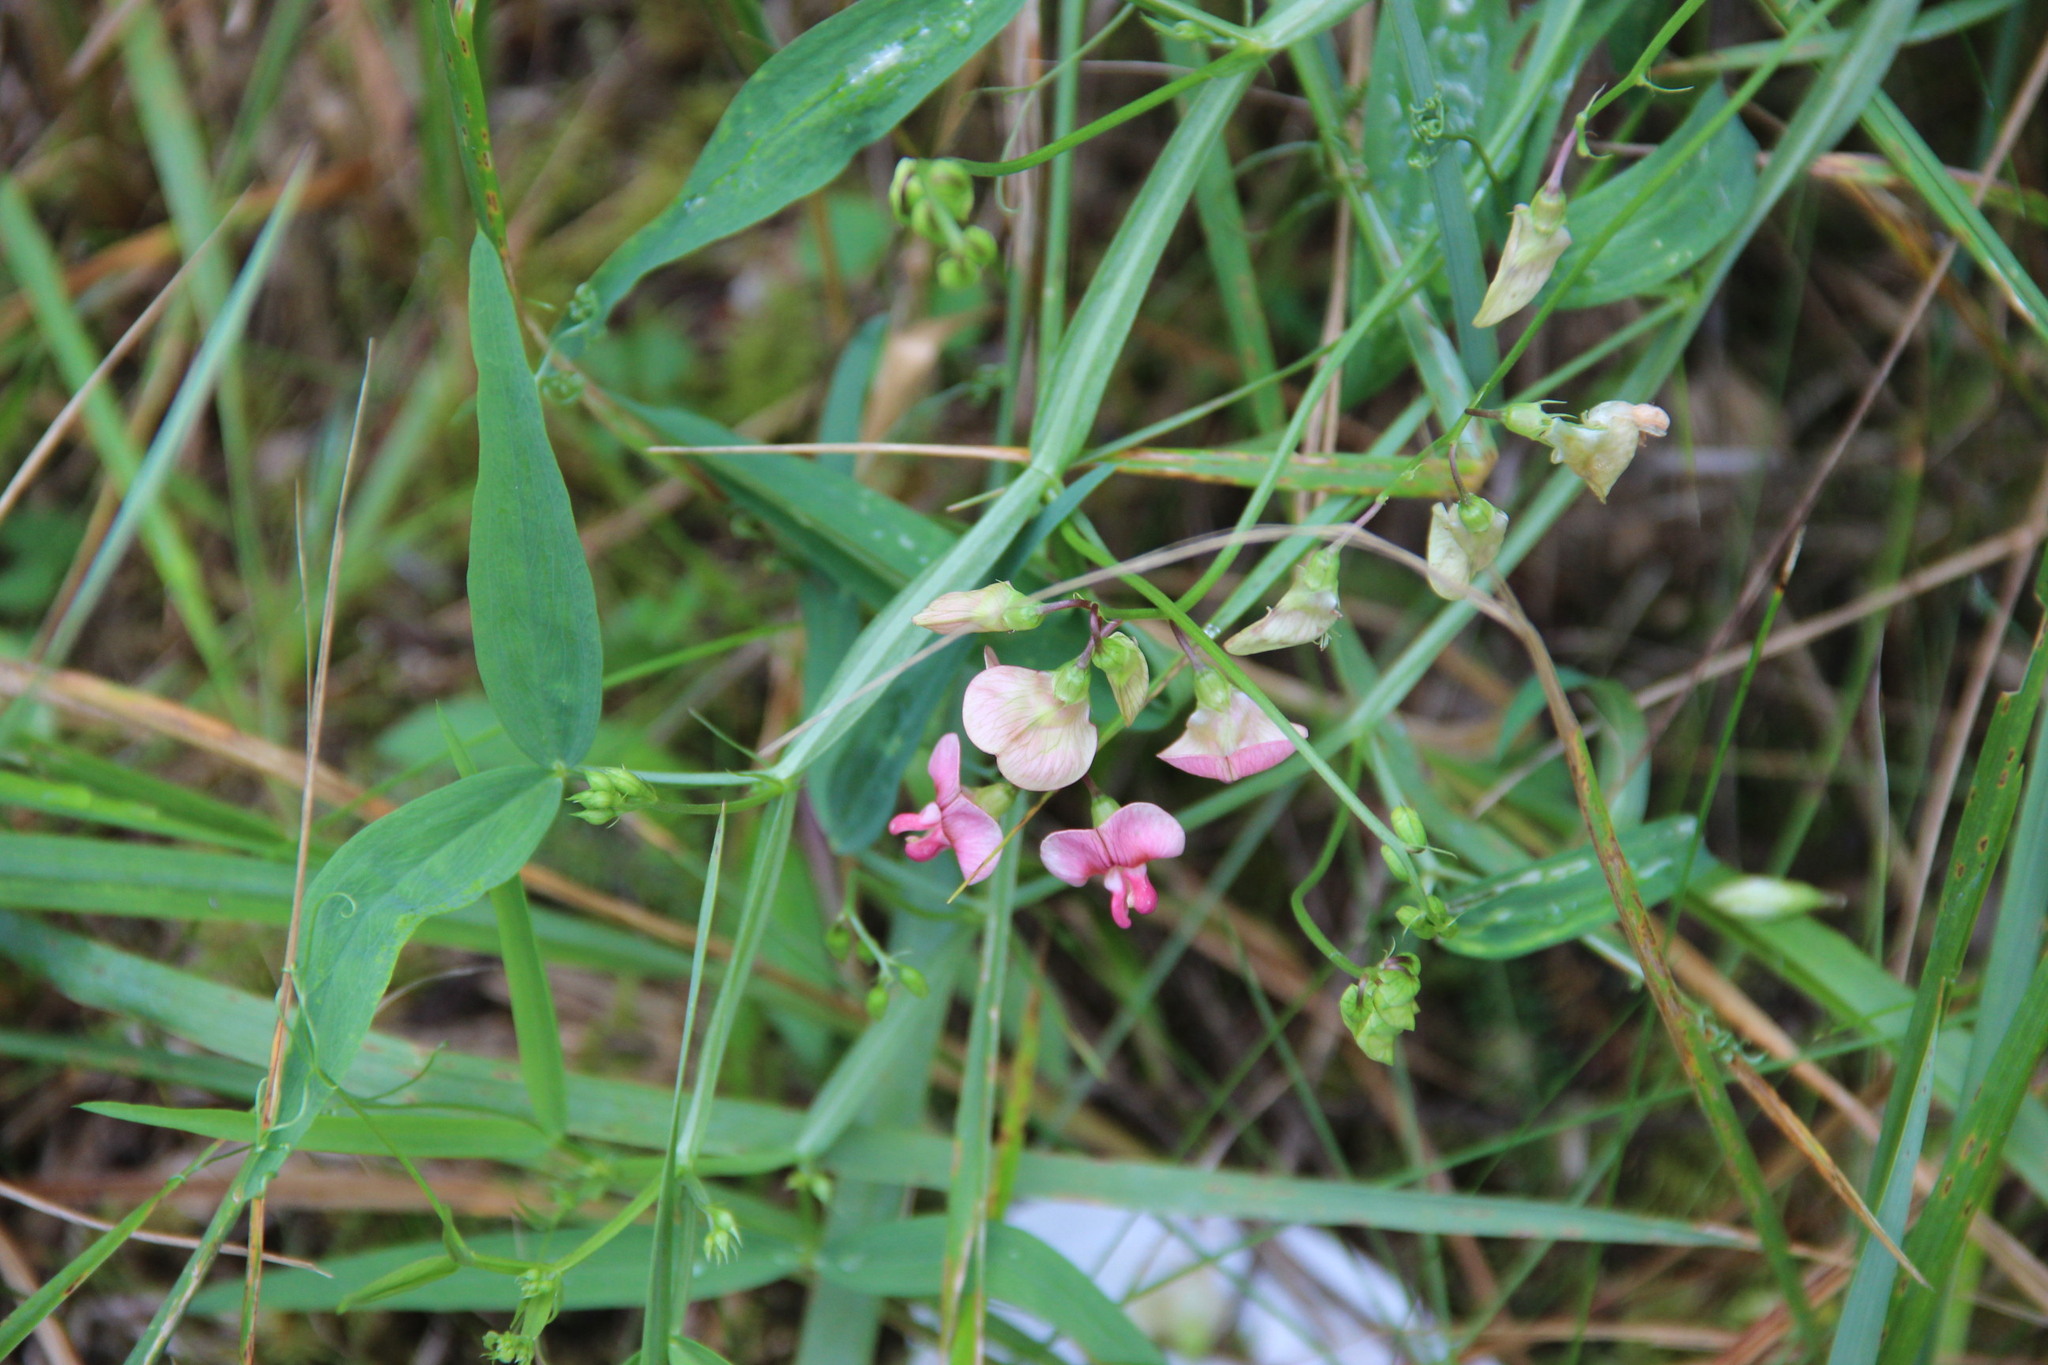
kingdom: Plantae
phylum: Tracheophyta
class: Magnoliopsida
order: Fabales
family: Fabaceae
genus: Lathyrus
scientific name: Lathyrus sylvestris
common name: Flat pea
